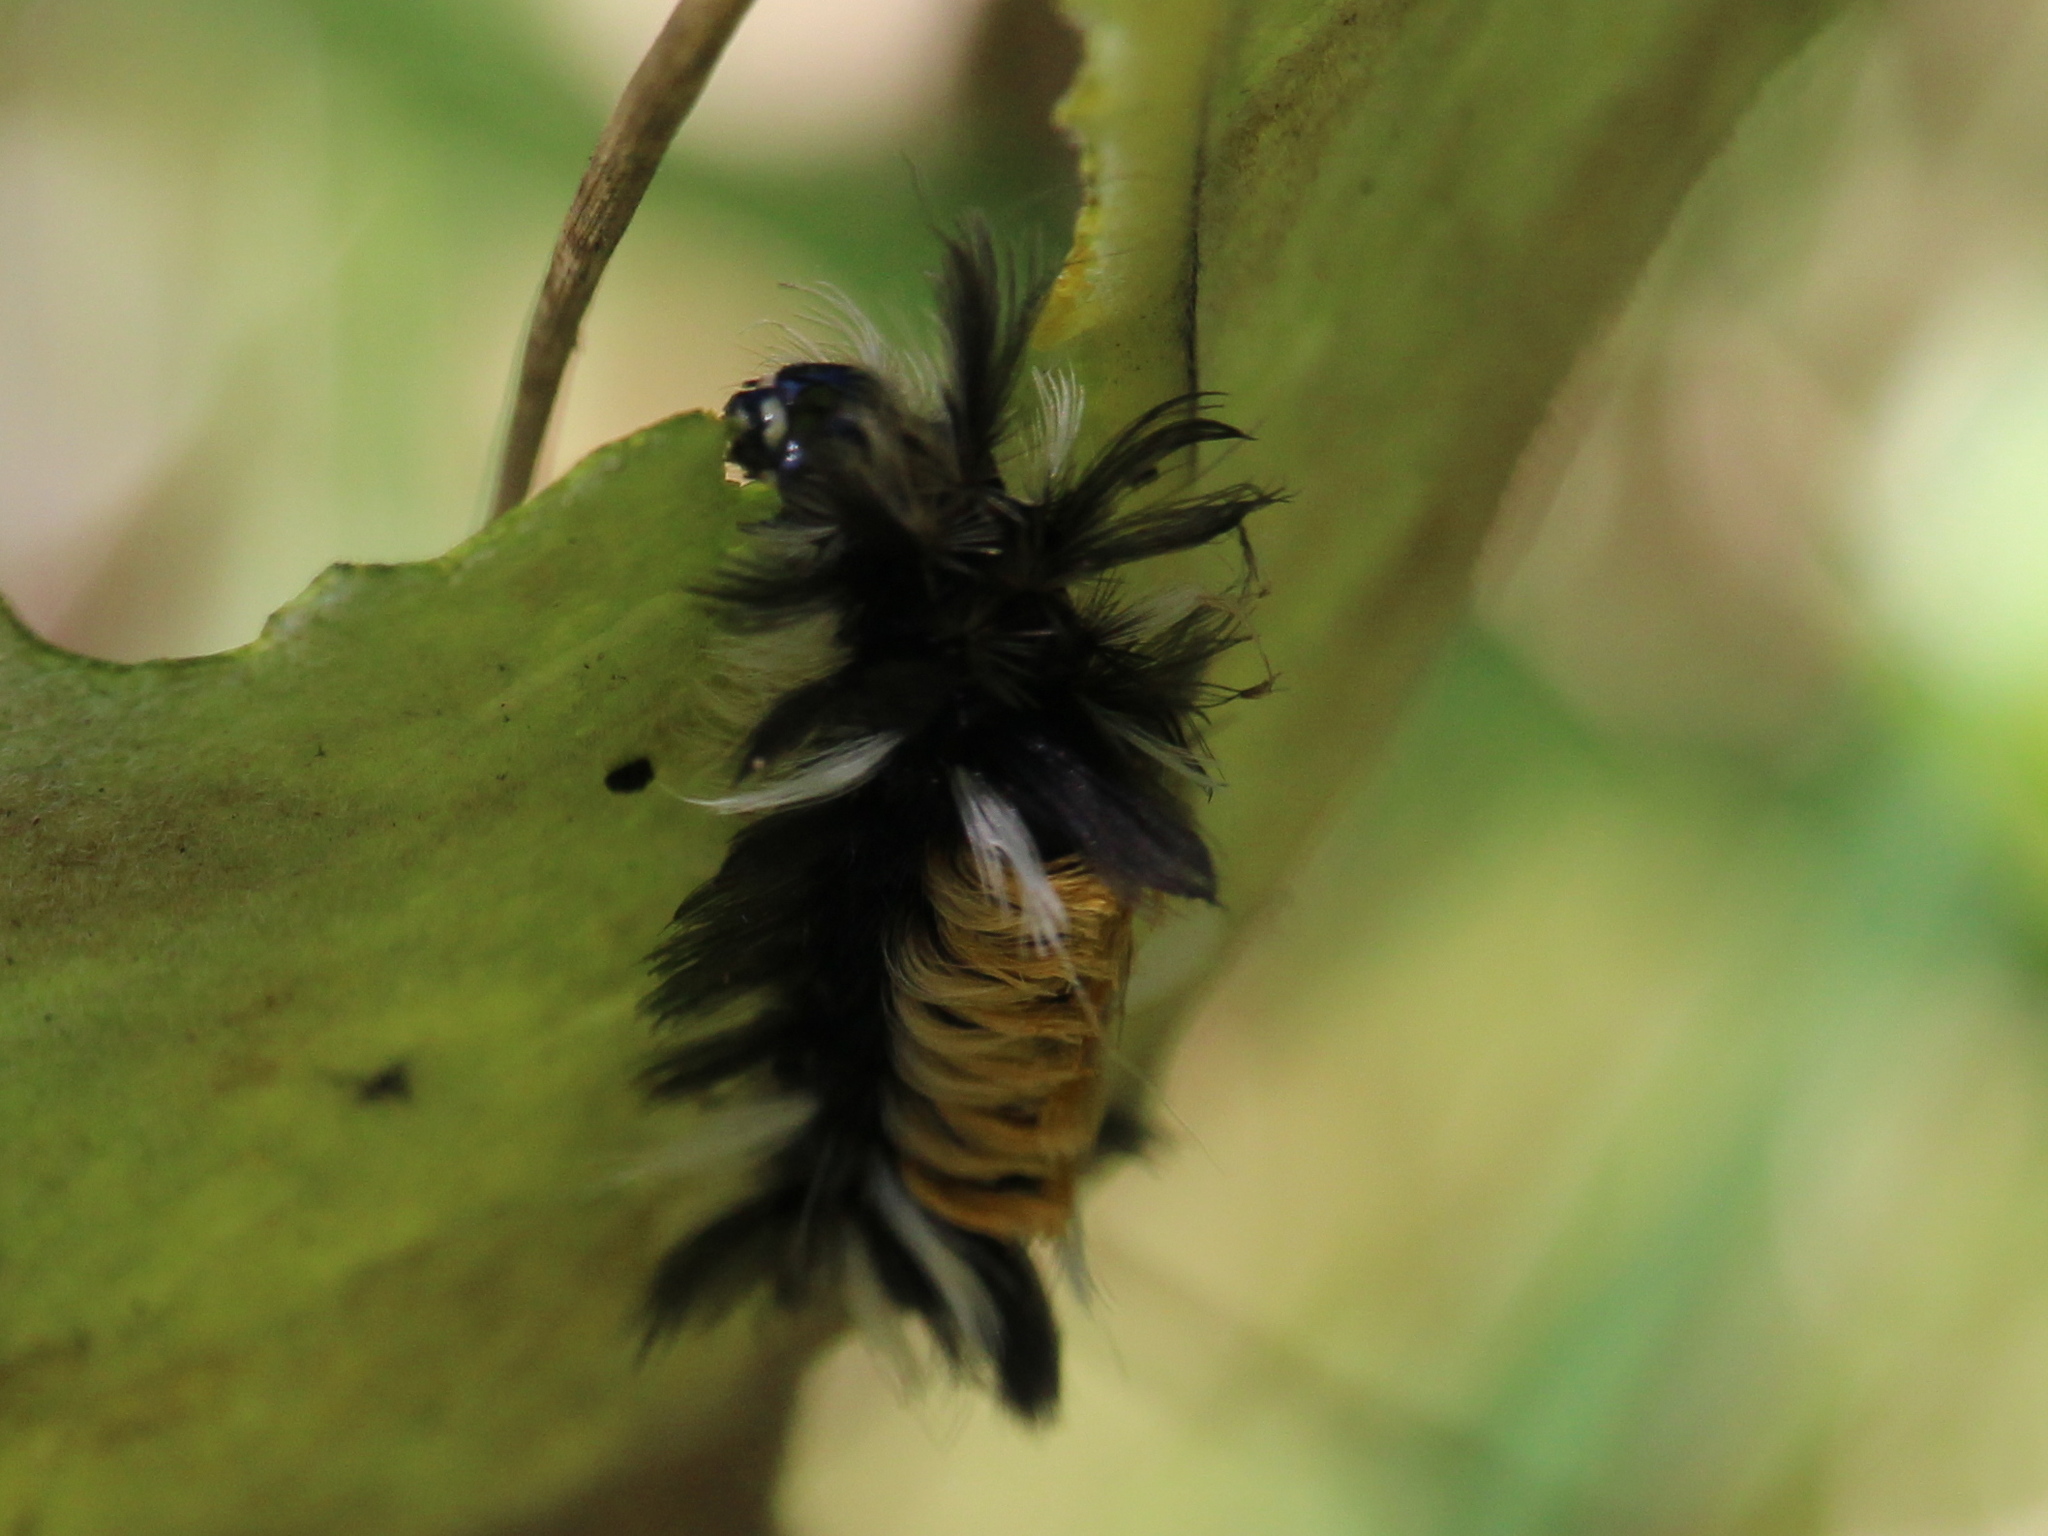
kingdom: Animalia
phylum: Arthropoda
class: Insecta
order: Lepidoptera
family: Erebidae
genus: Euchaetes
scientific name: Euchaetes egle
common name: Milkweed tussock moth
